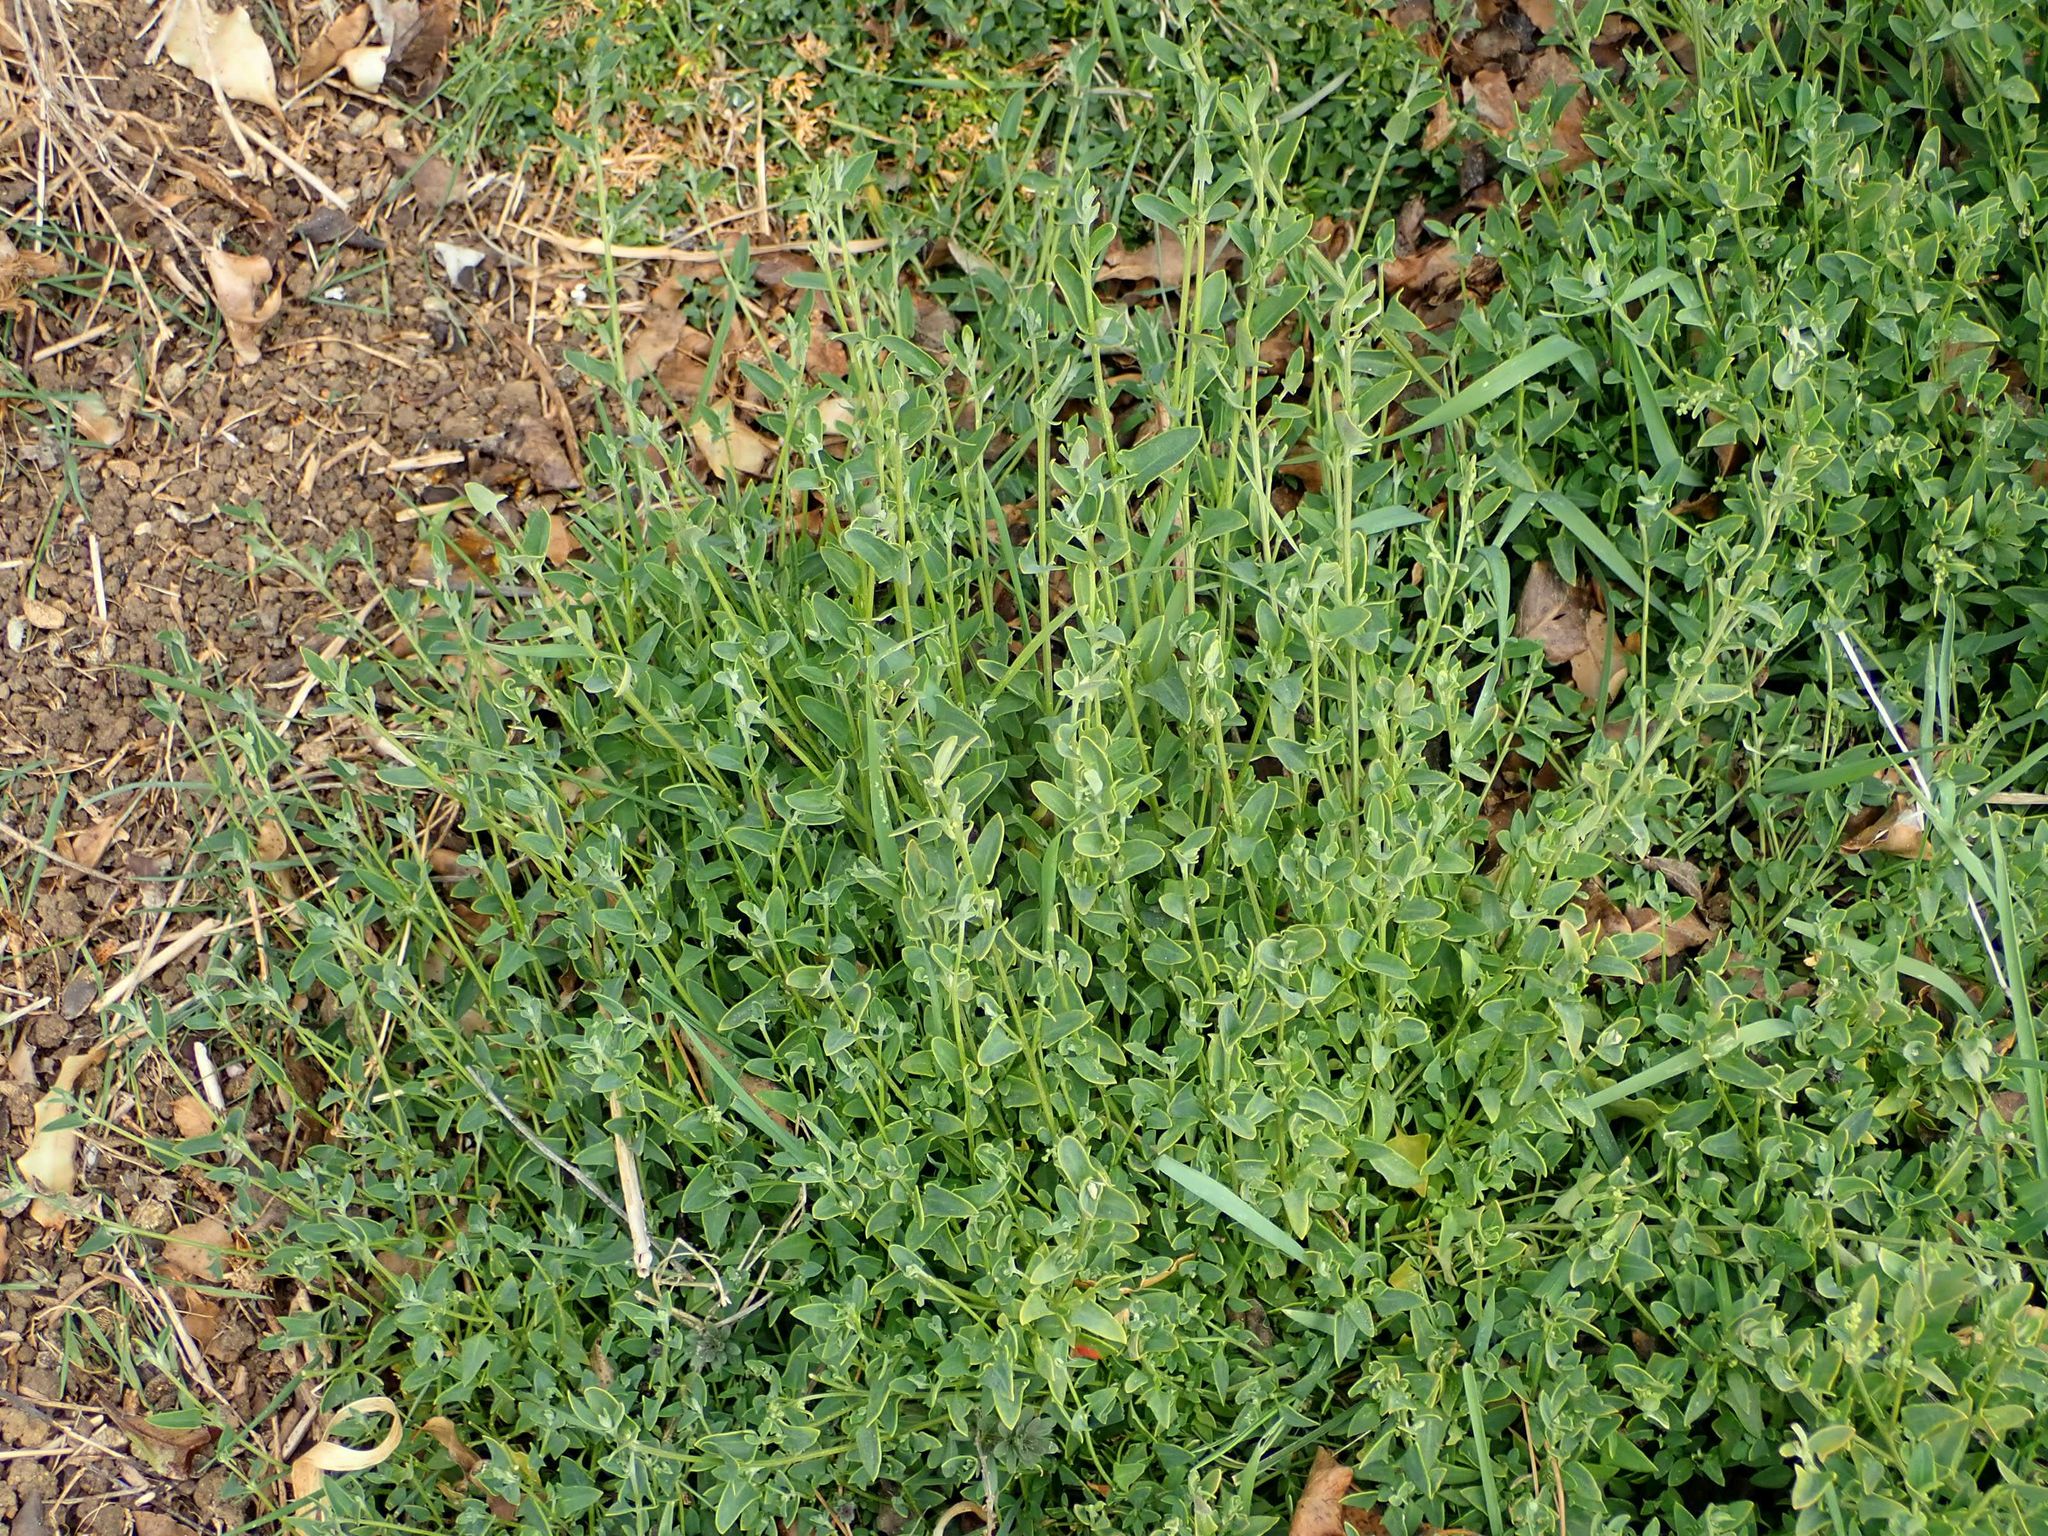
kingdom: Plantae
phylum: Tracheophyta
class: Magnoliopsida
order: Caryophyllales
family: Amaranthaceae
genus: Chenopodium
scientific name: Chenopodium nutans
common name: Climbing-saltbush
